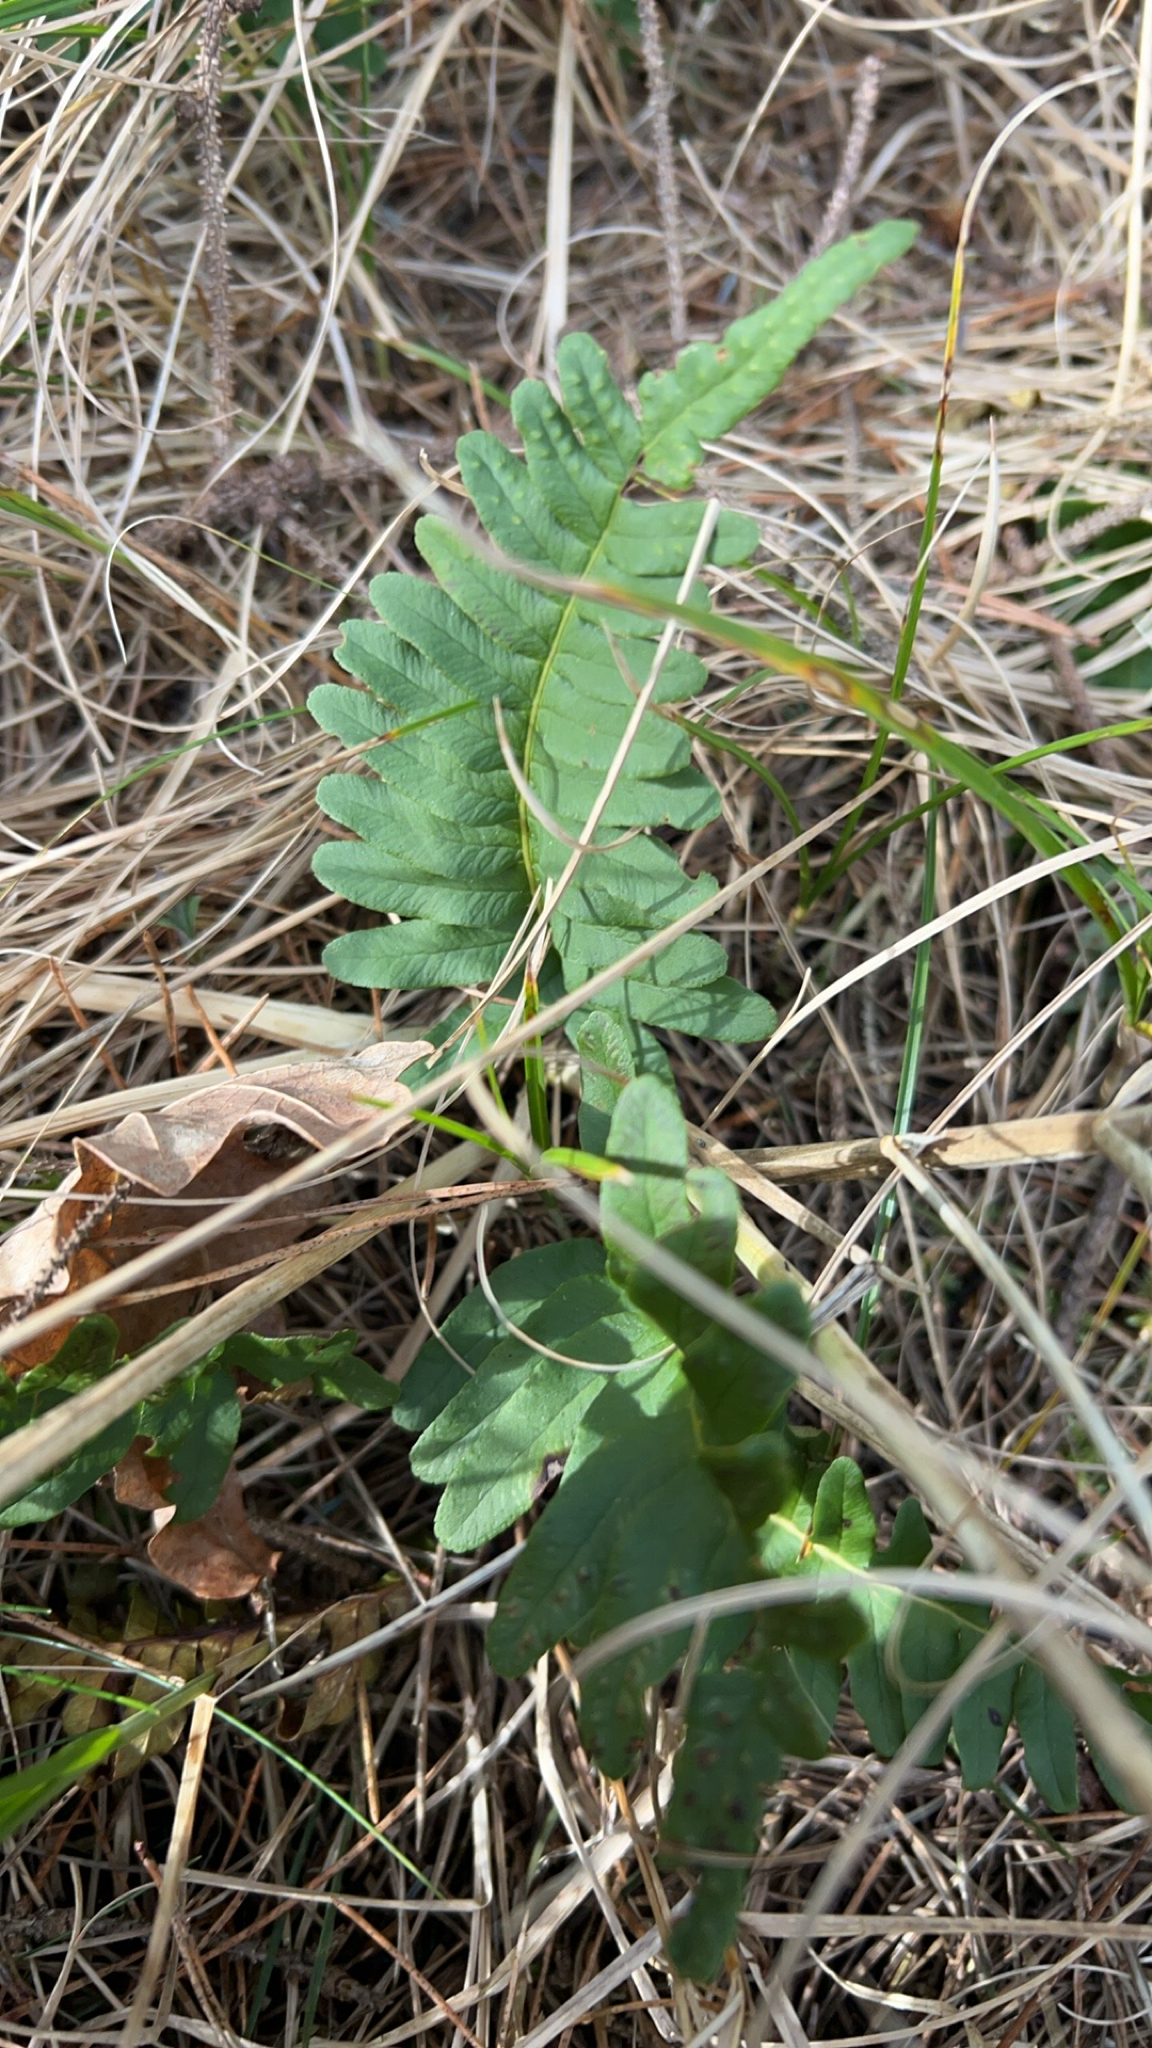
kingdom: Plantae
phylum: Tracheophyta
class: Polypodiopsida
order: Polypodiales
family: Polypodiaceae
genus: Polypodium
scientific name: Polypodium vulgare
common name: Common polypody
